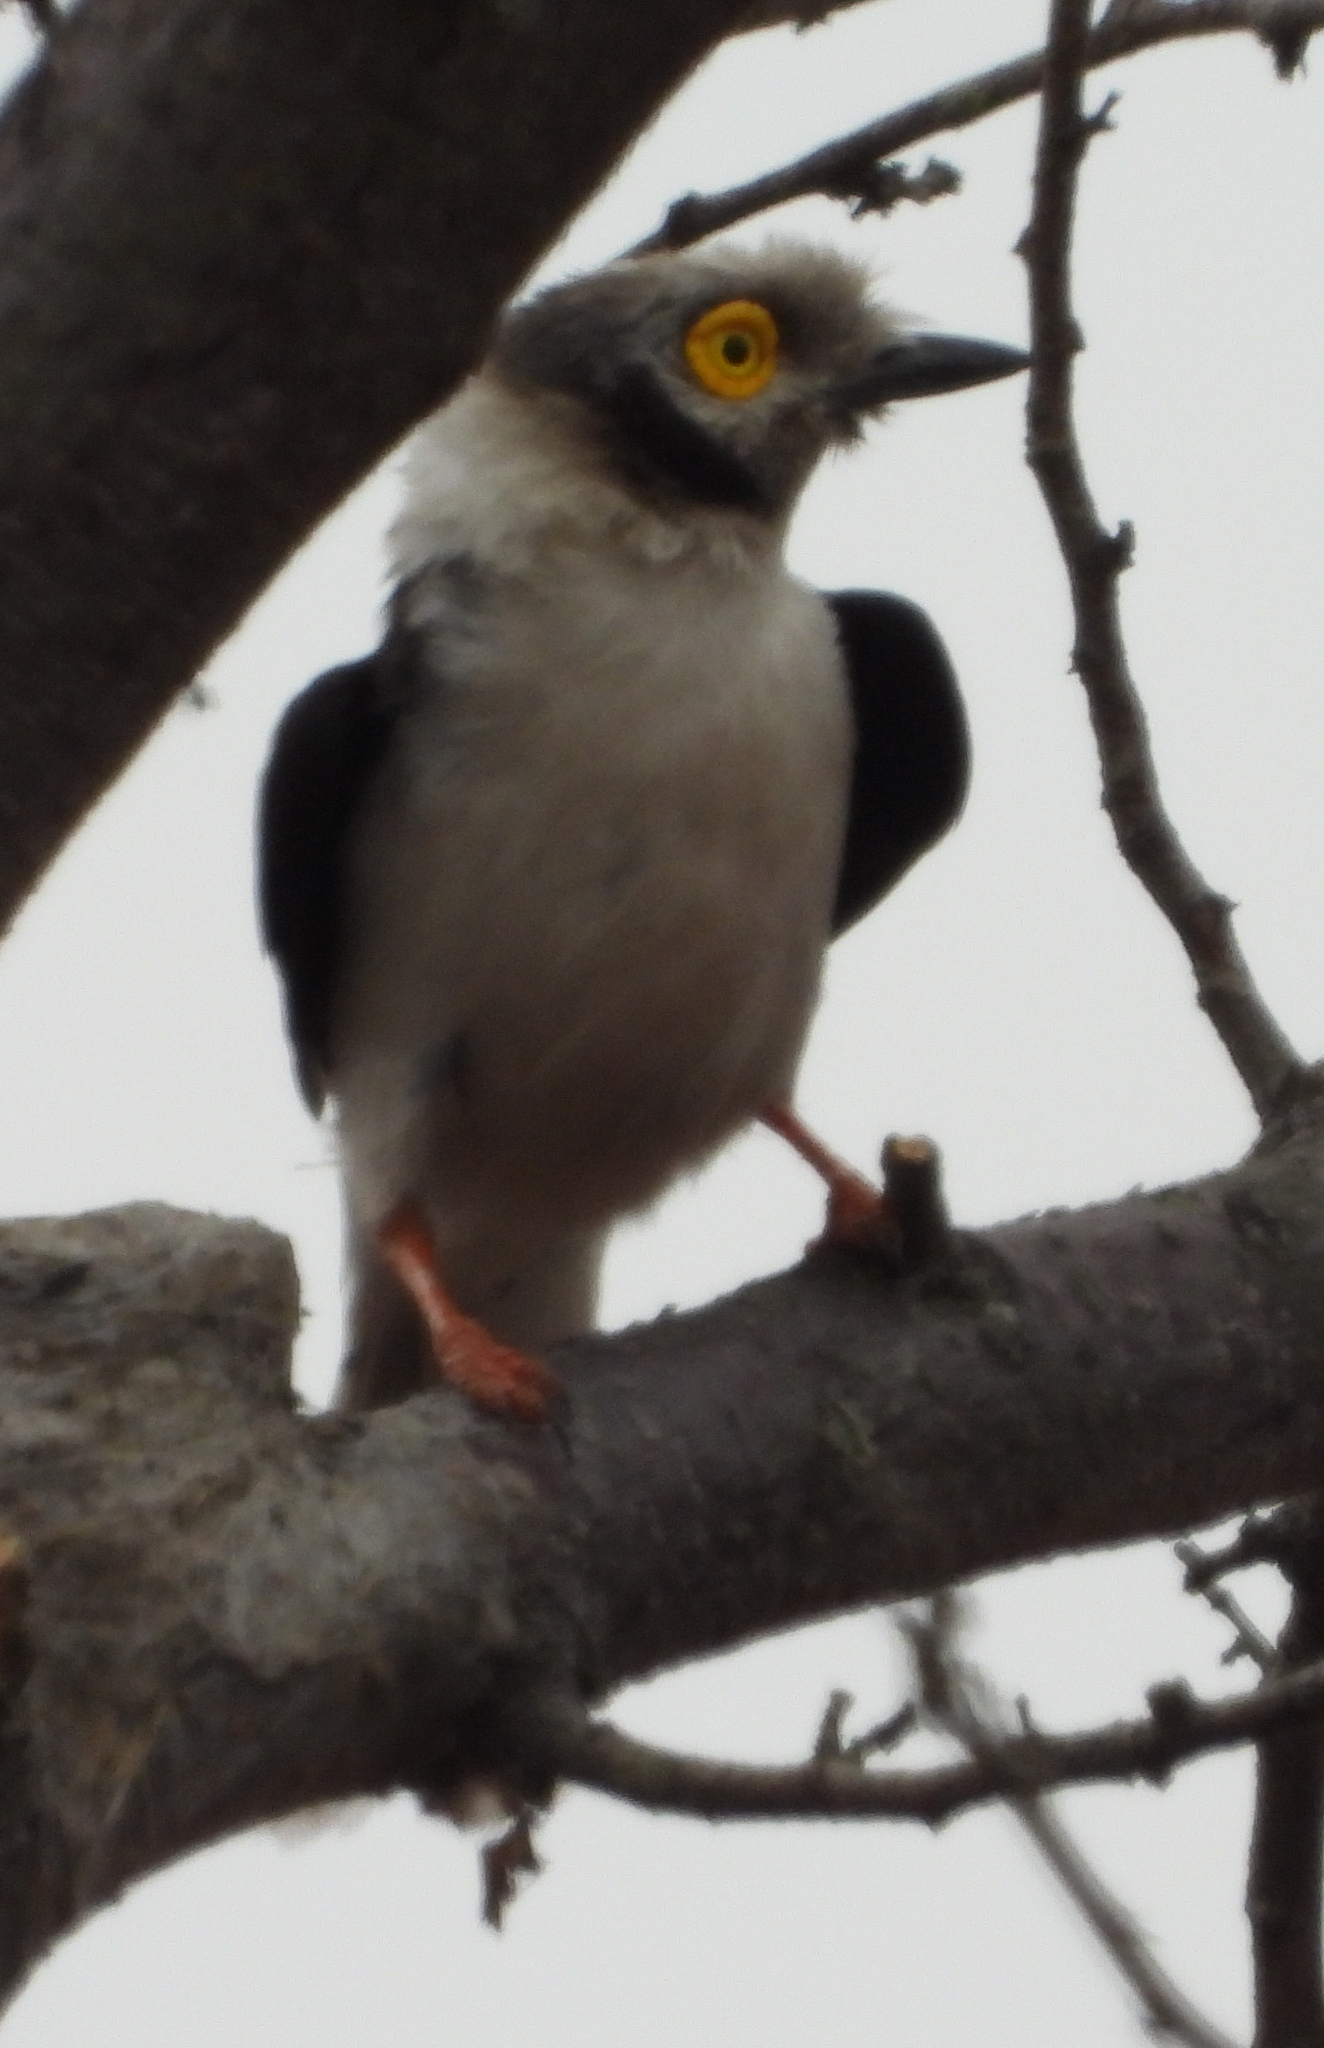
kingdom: Animalia
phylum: Chordata
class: Aves
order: Passeriformes
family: Prionopidae
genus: Prionops
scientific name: Prionops plumatus
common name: White-crested helmetshrike
